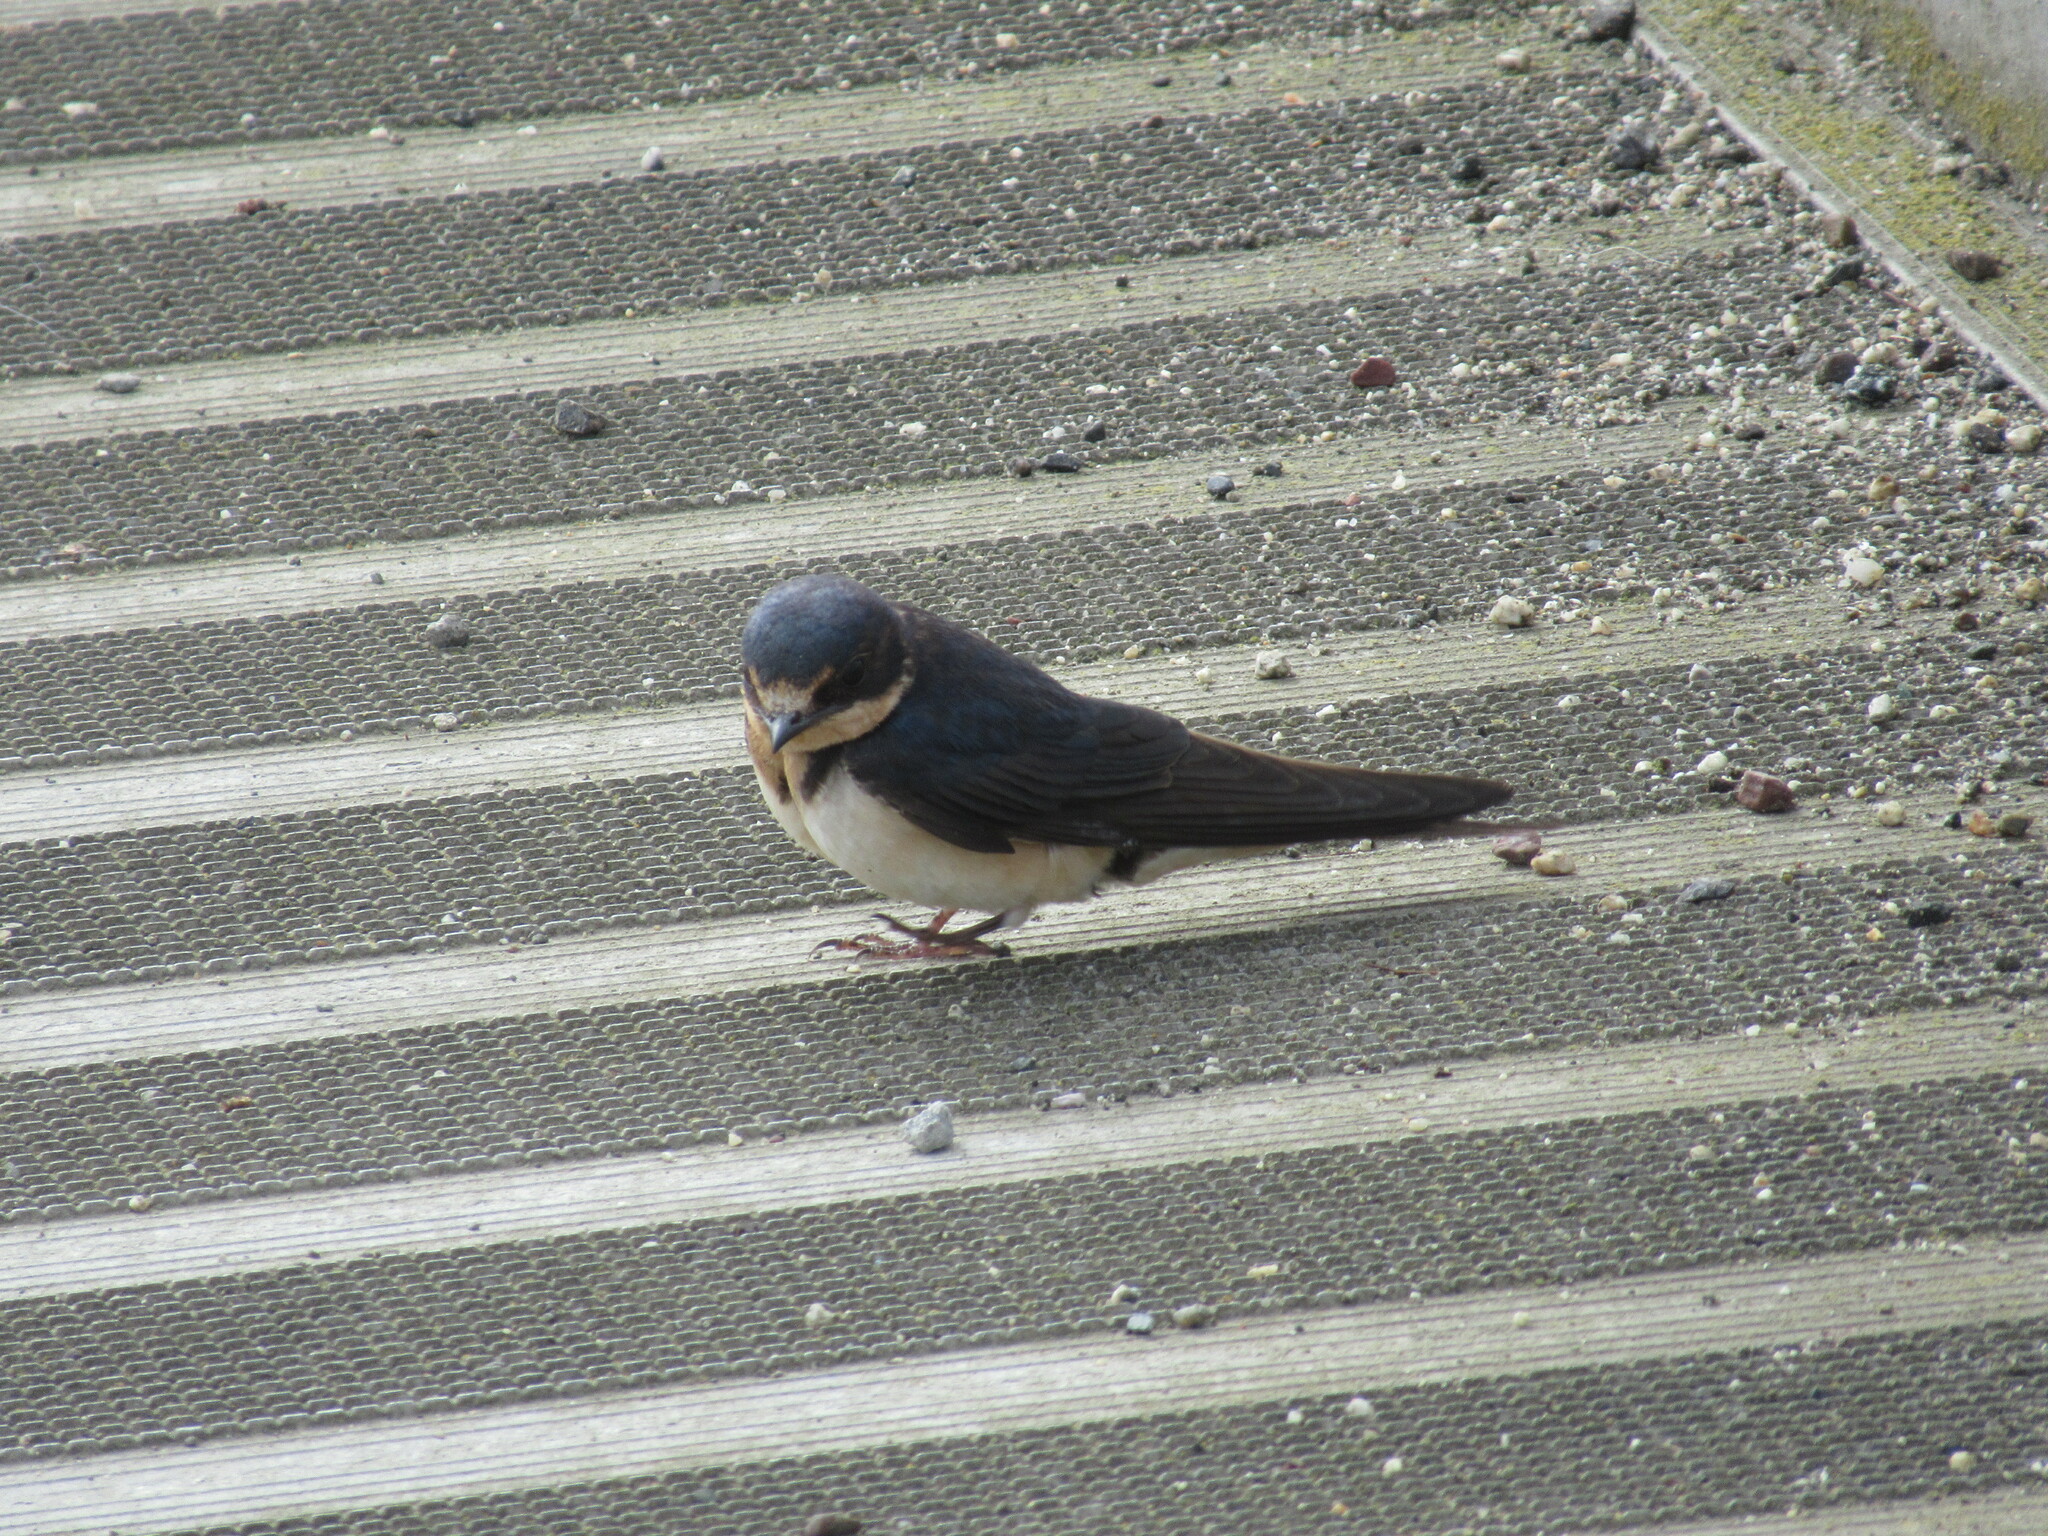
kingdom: Animalia
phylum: Chordata
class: Aves
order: Passeriformes
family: Hirundinidae
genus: Hirundo
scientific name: Hirundo rustica
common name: Barn swallow
